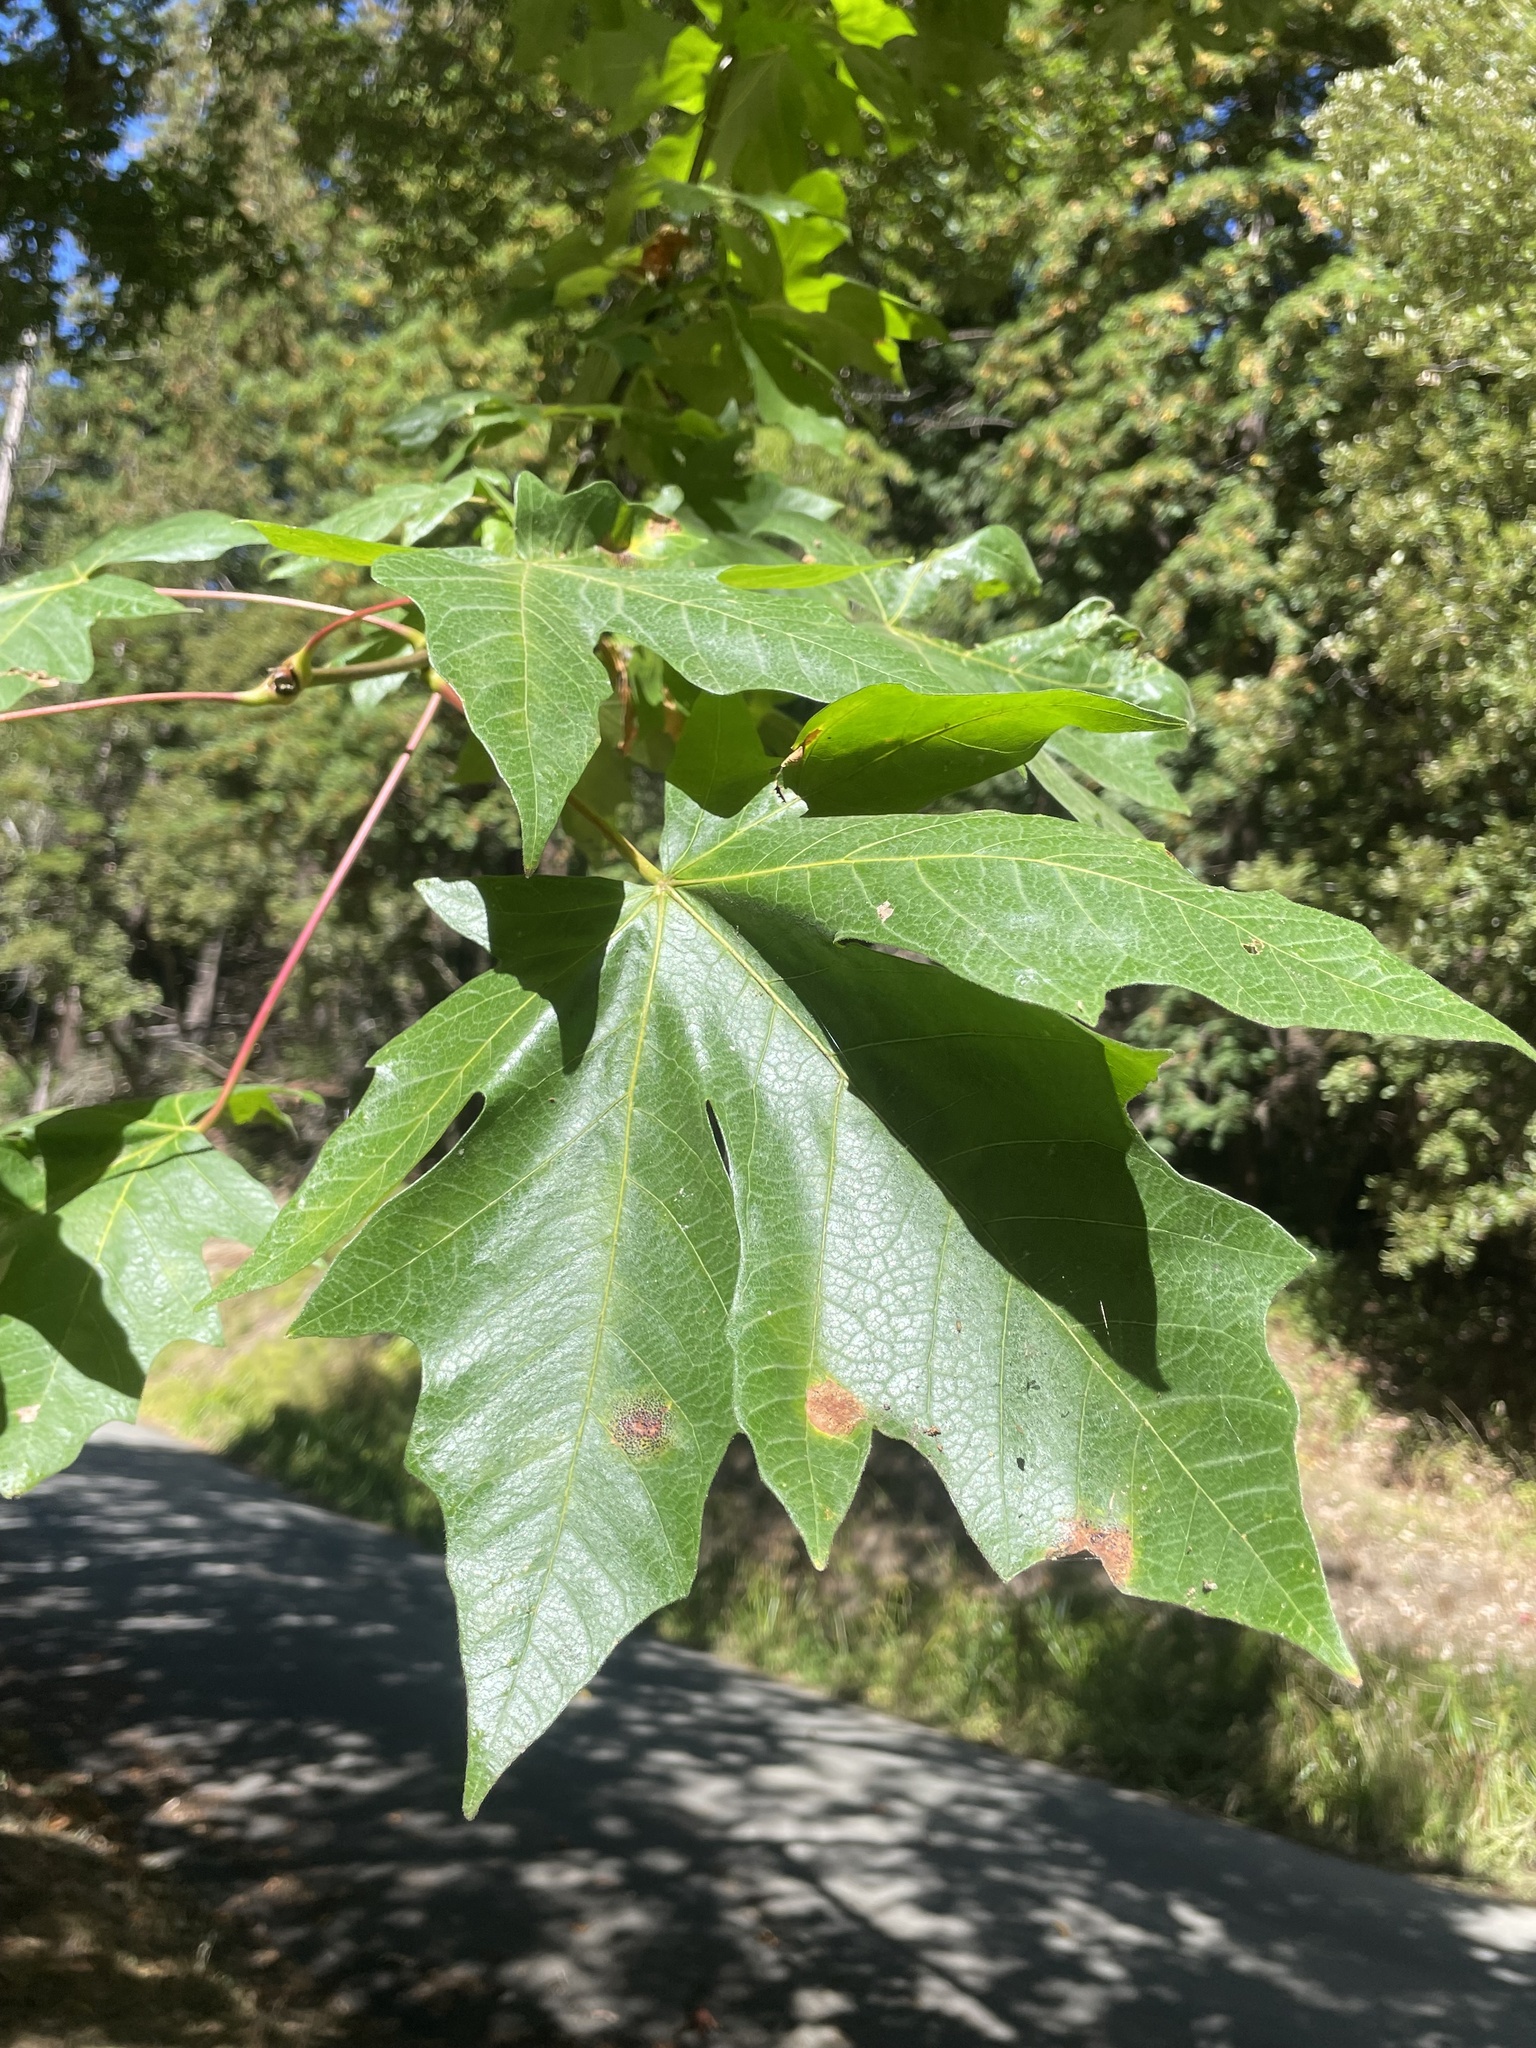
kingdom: Plantae
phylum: Tracheophyta
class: Magnoliopsida
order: Sapindales
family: Sapindaceae
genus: Acer
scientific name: Acer macrophyllum
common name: Oregon maple
